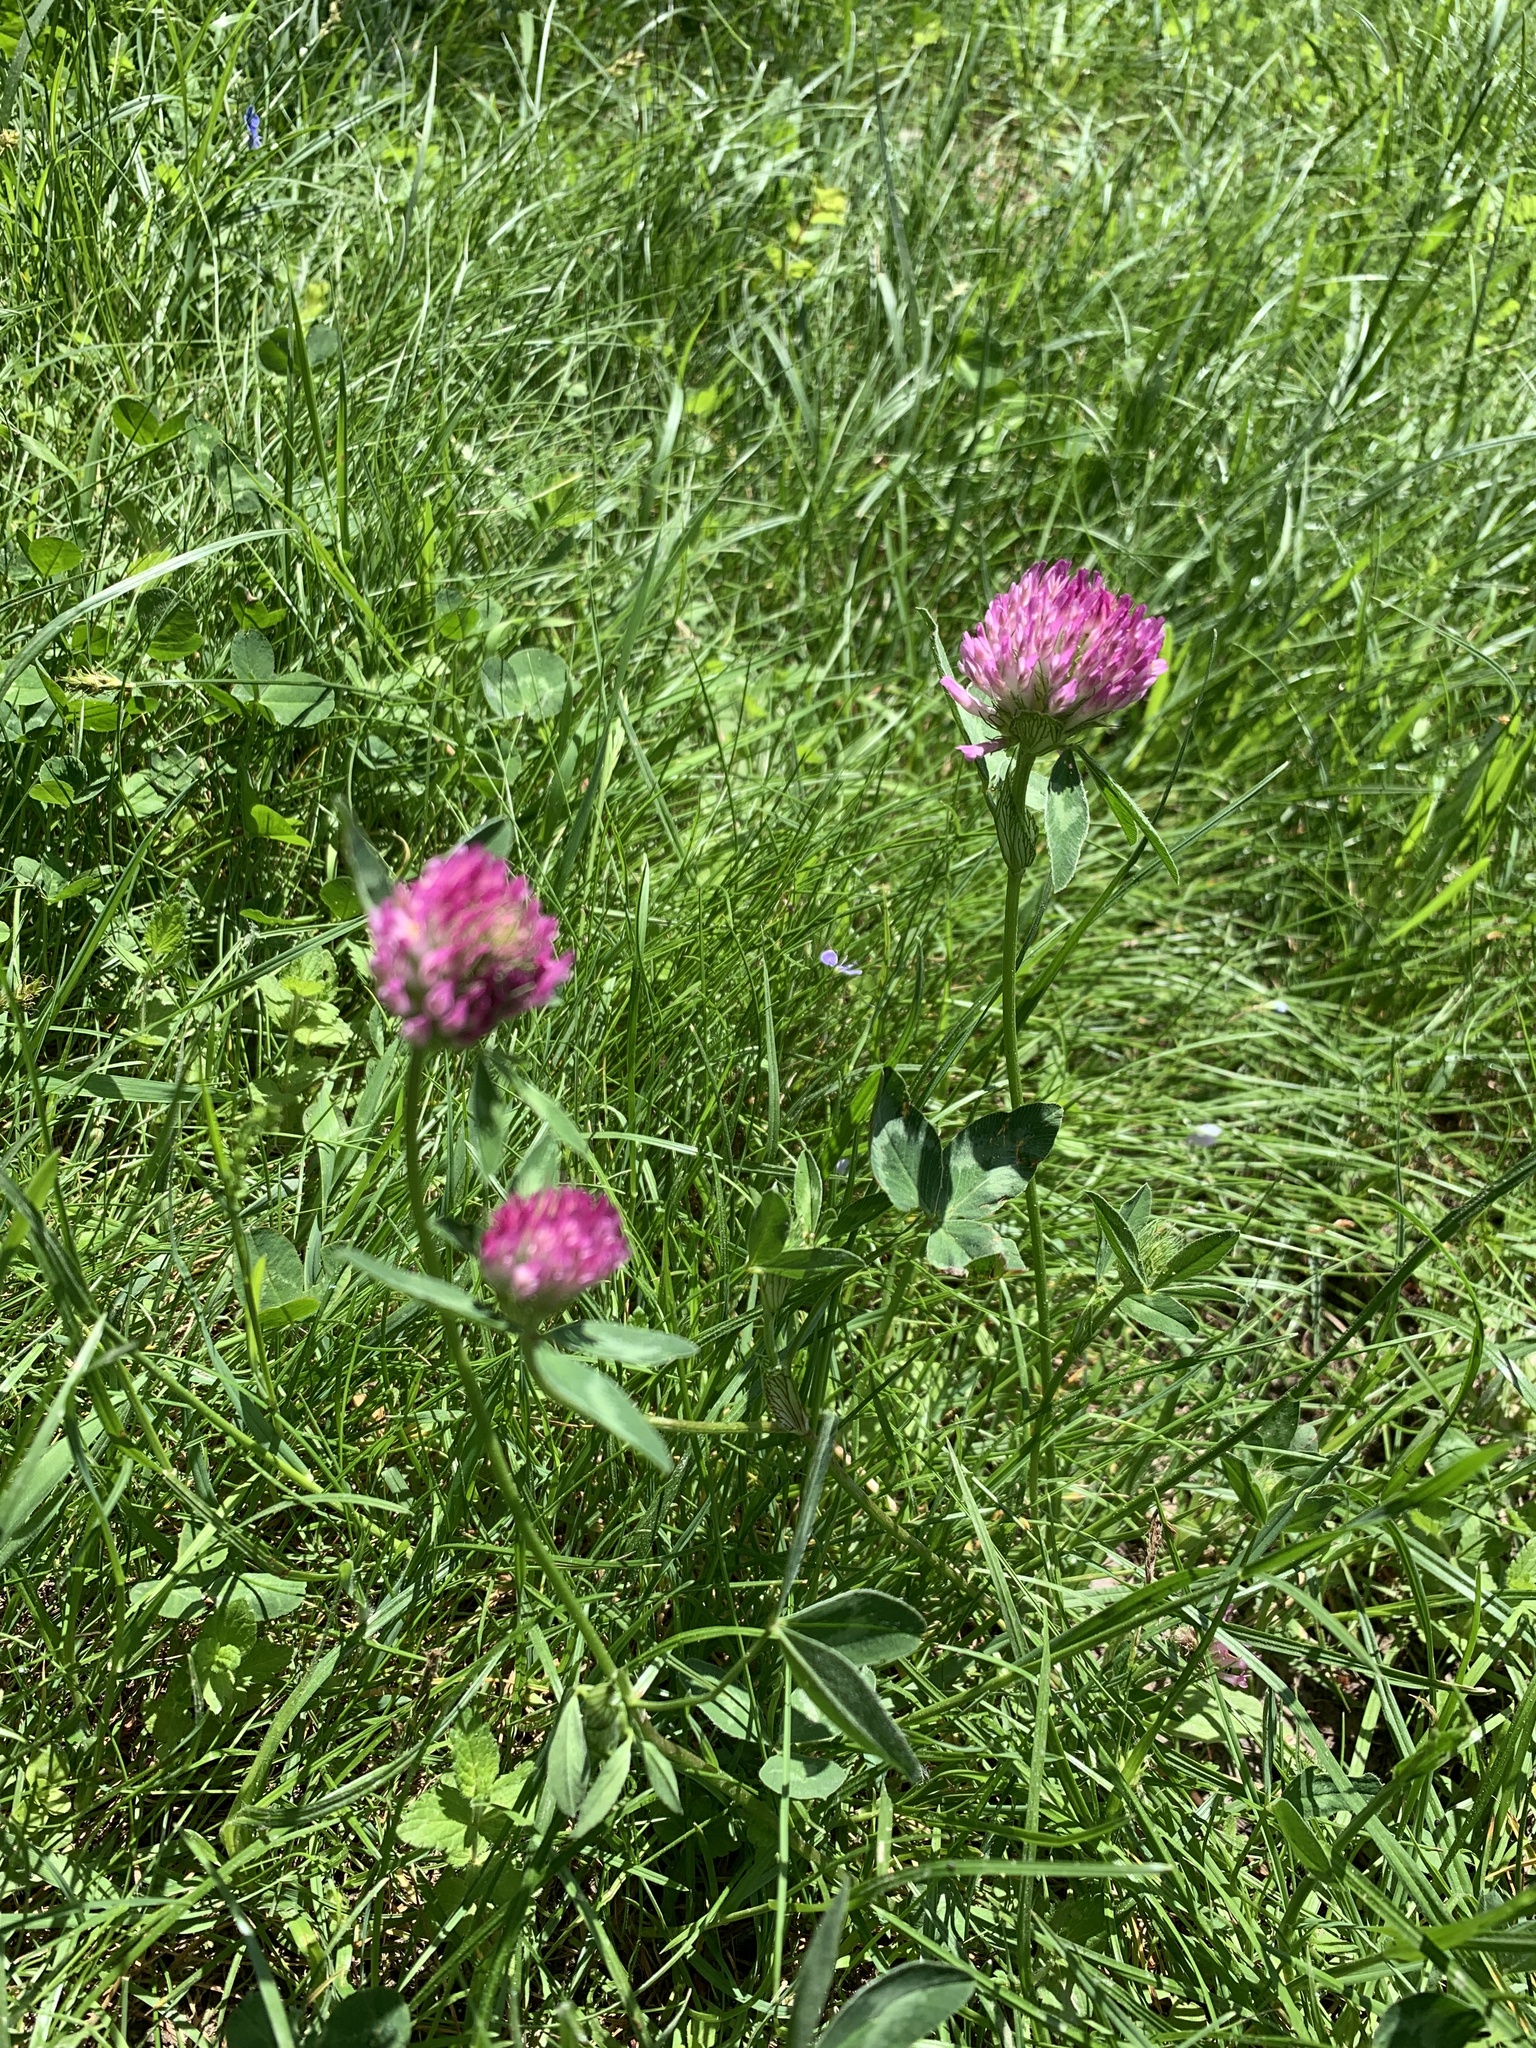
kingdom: Plantae
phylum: Tracheophyta
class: Magnoliopsida
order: Fabales
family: Fabaceae
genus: Trifolium
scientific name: Trifolium pratense
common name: Red clover
